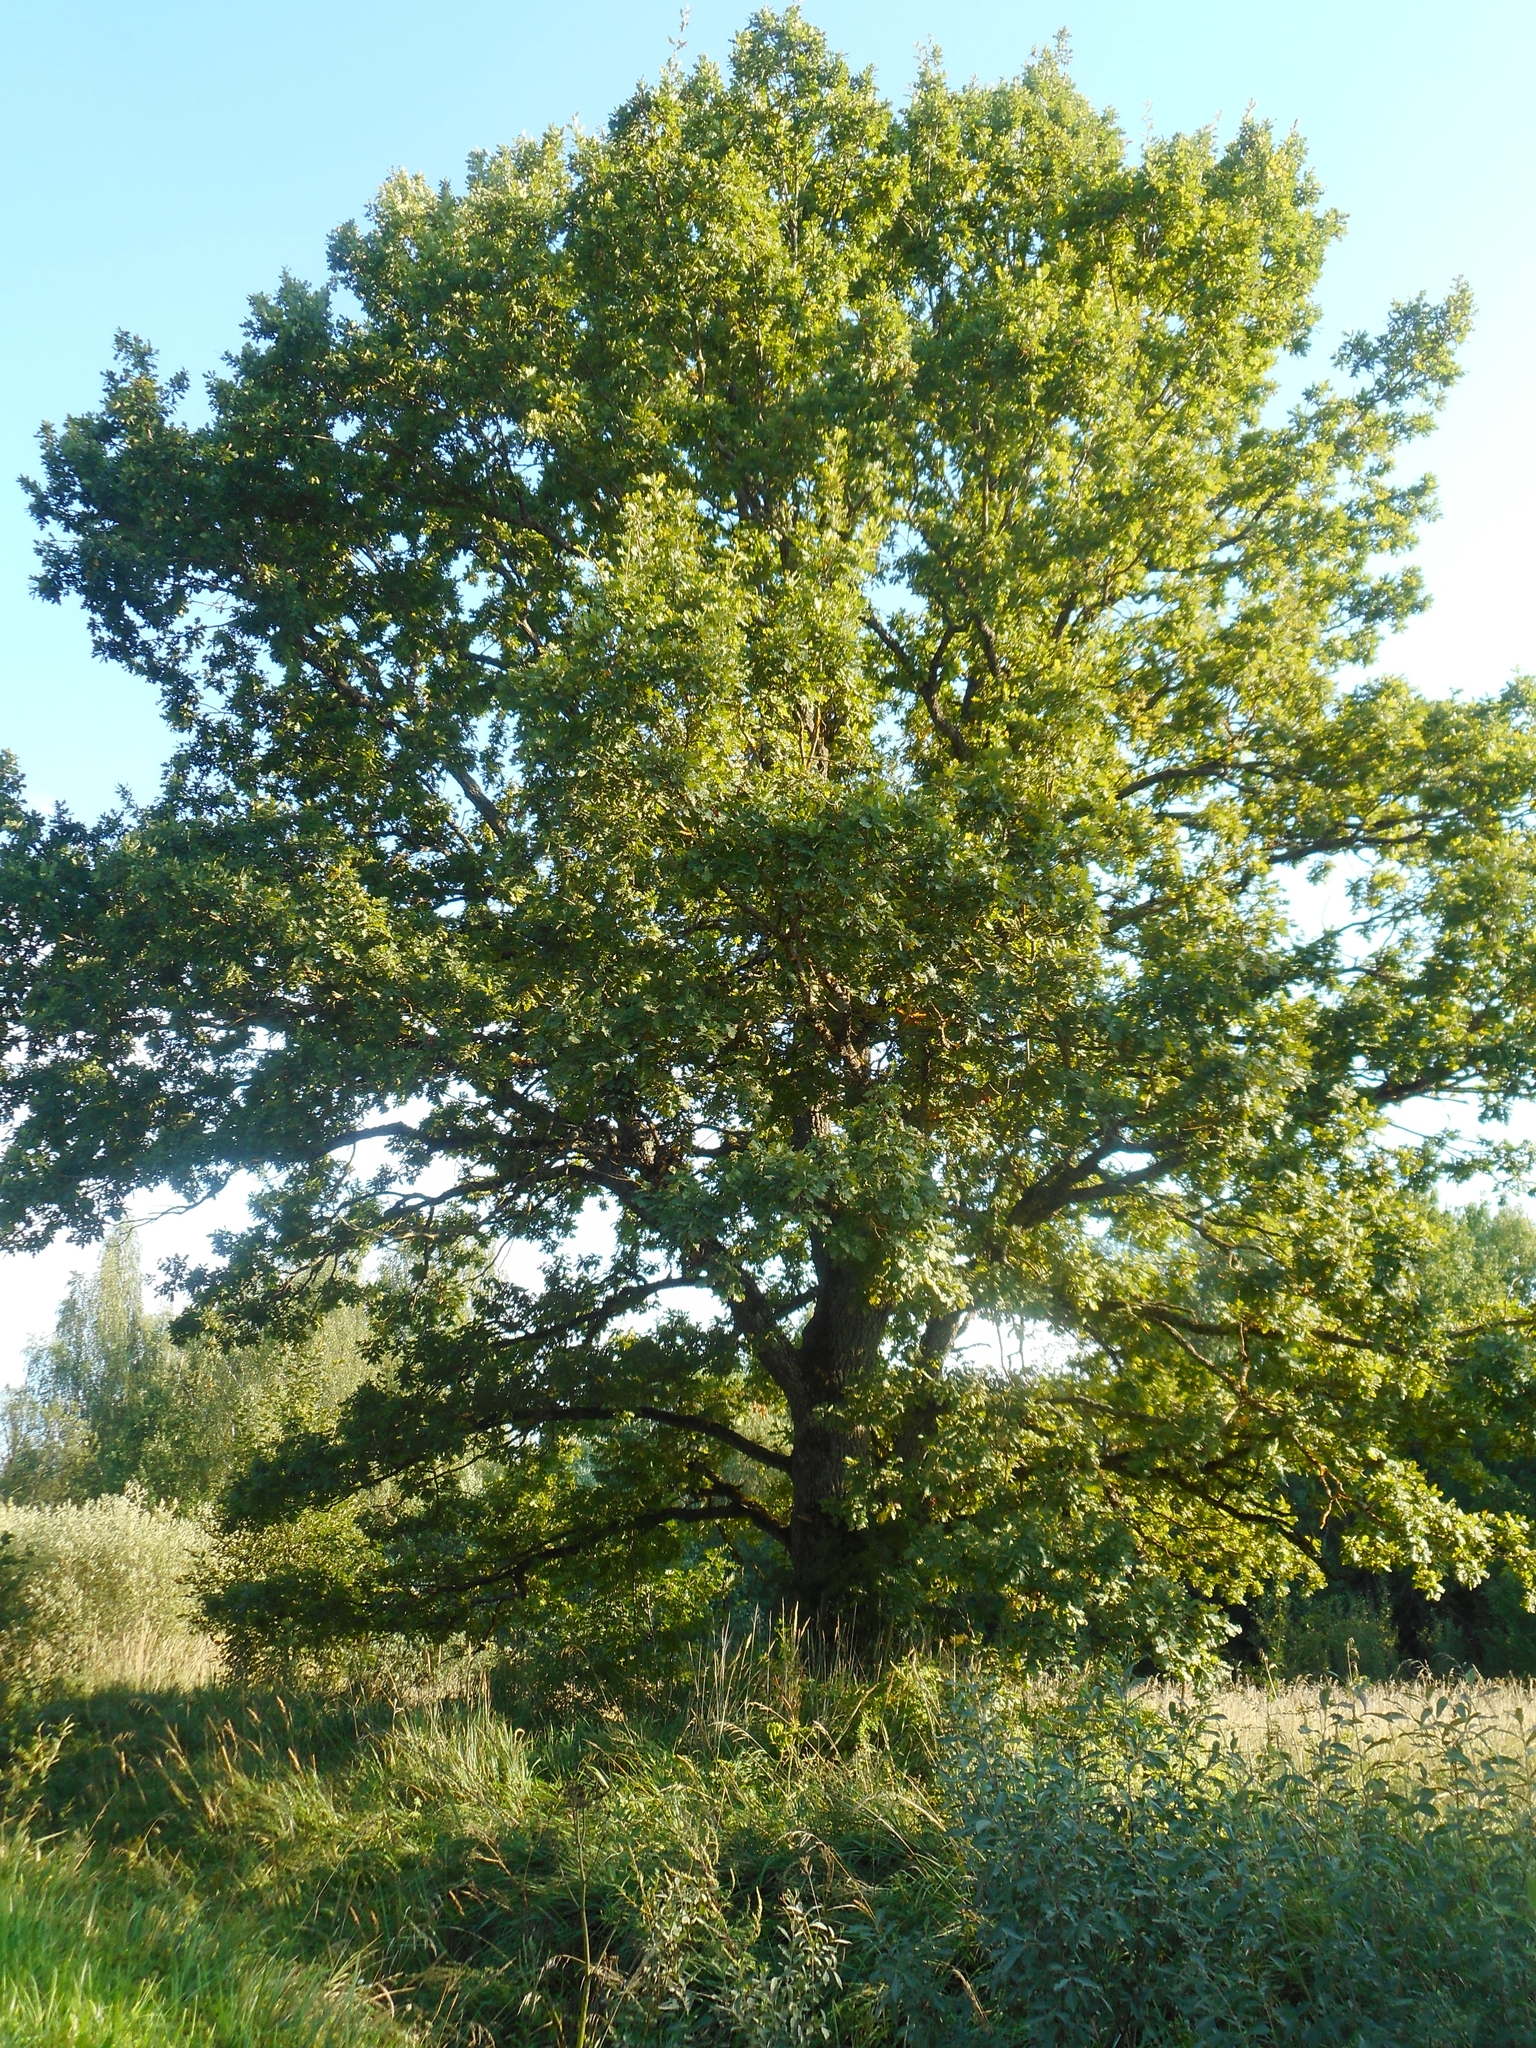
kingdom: Plantae
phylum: Tracheophyta
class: Magnoliopsida
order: Fagales
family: Fagaceae
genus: Quercus
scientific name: Quercus robur
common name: Pedunculate oak
